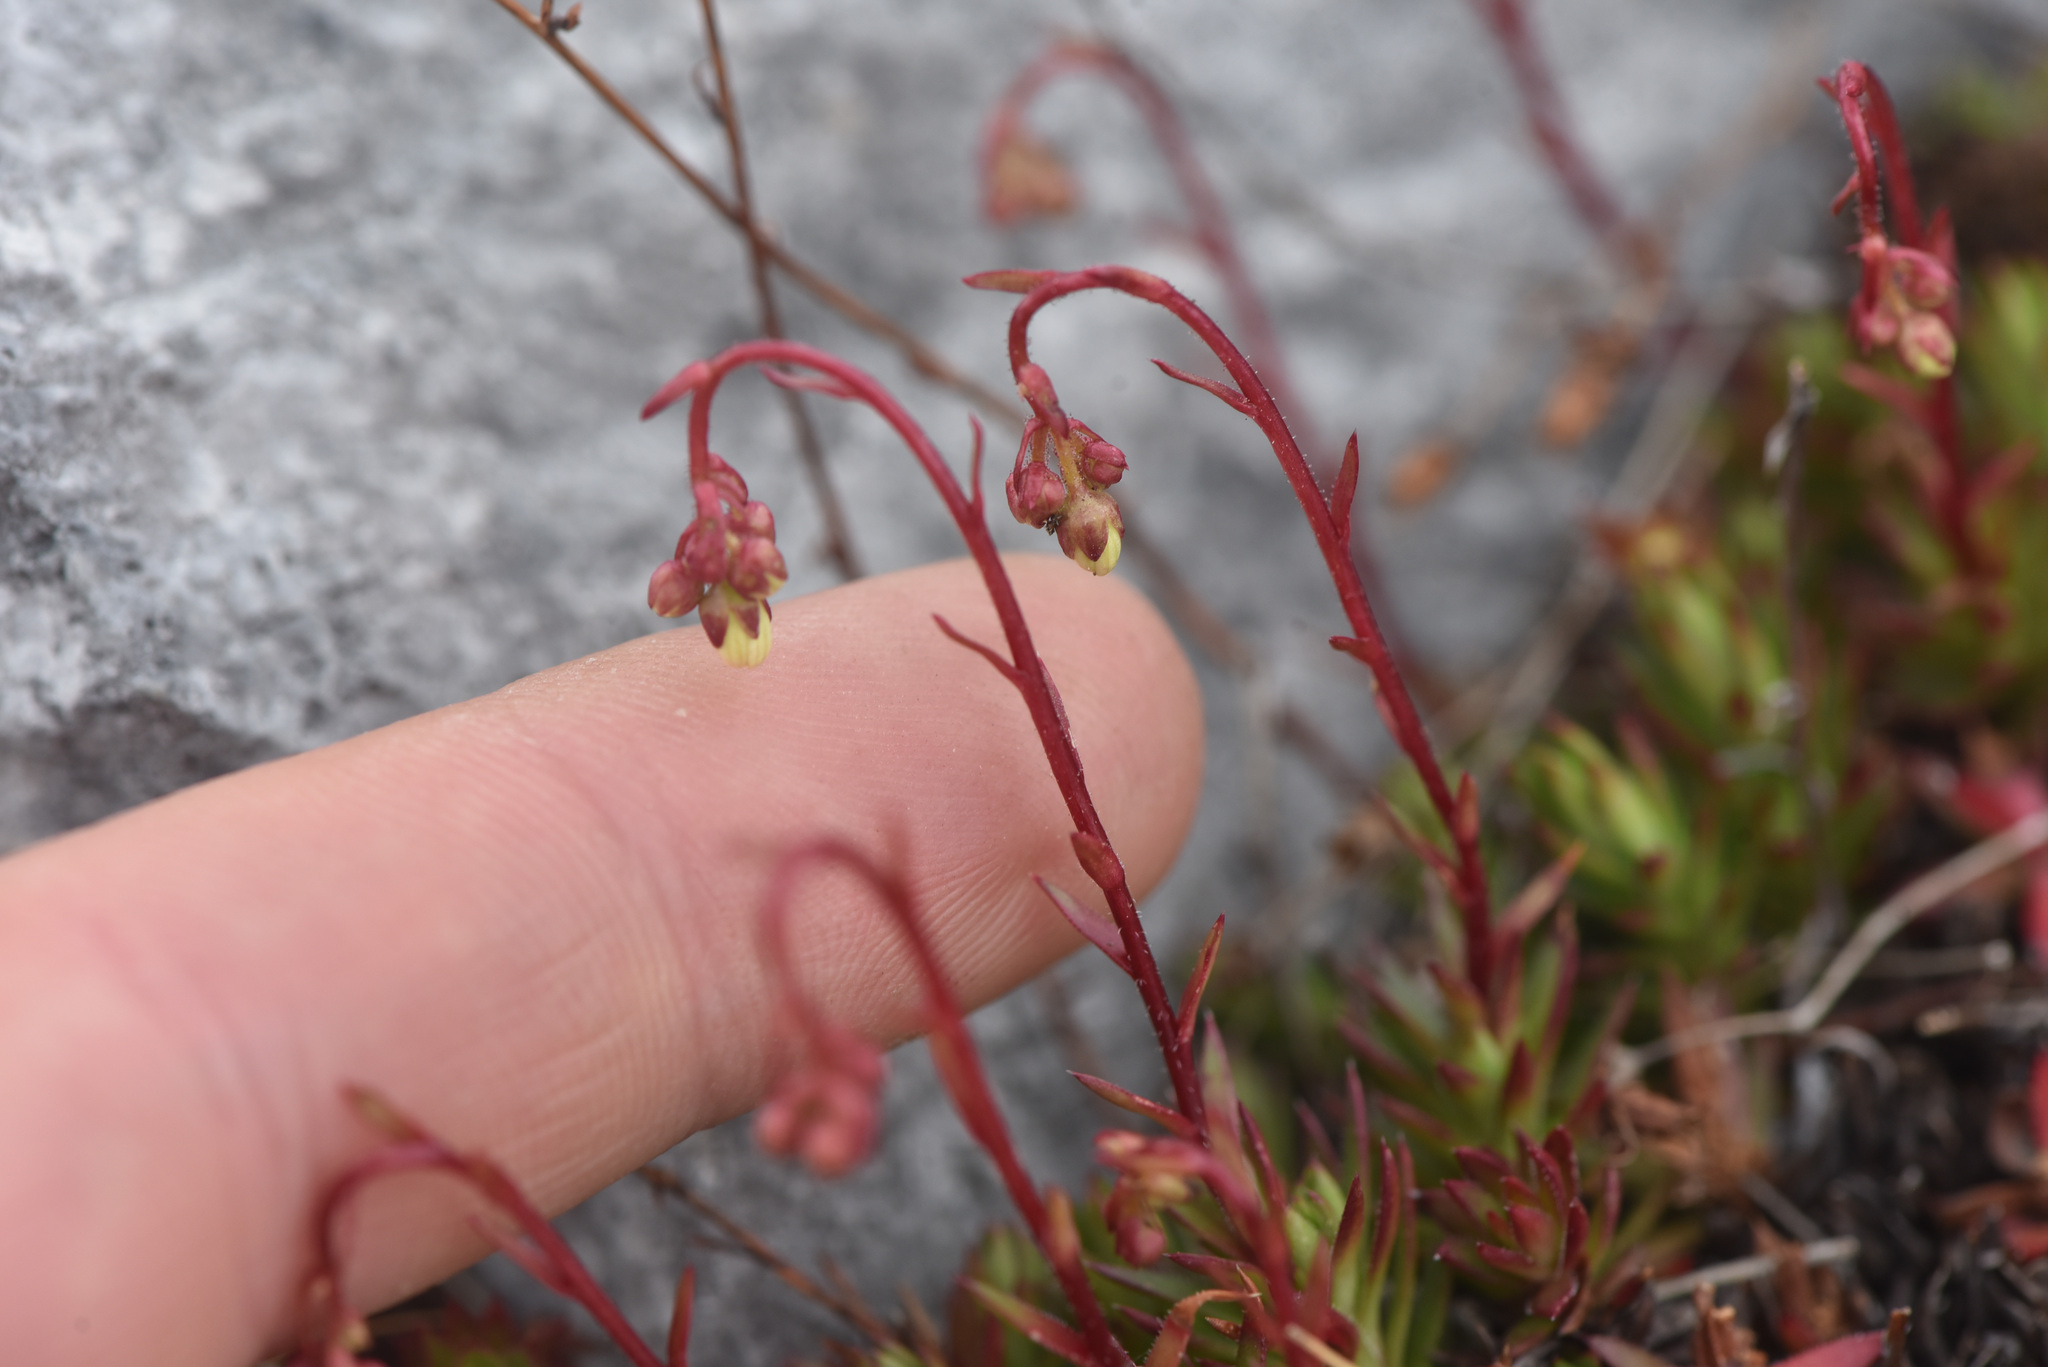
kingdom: Plantae
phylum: Tracheophyta
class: Magnoliopsida
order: Saxifragales
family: Saxifragaceae
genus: Saxifraga
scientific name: Saxifraga bronchialis
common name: Matted saxifrage
